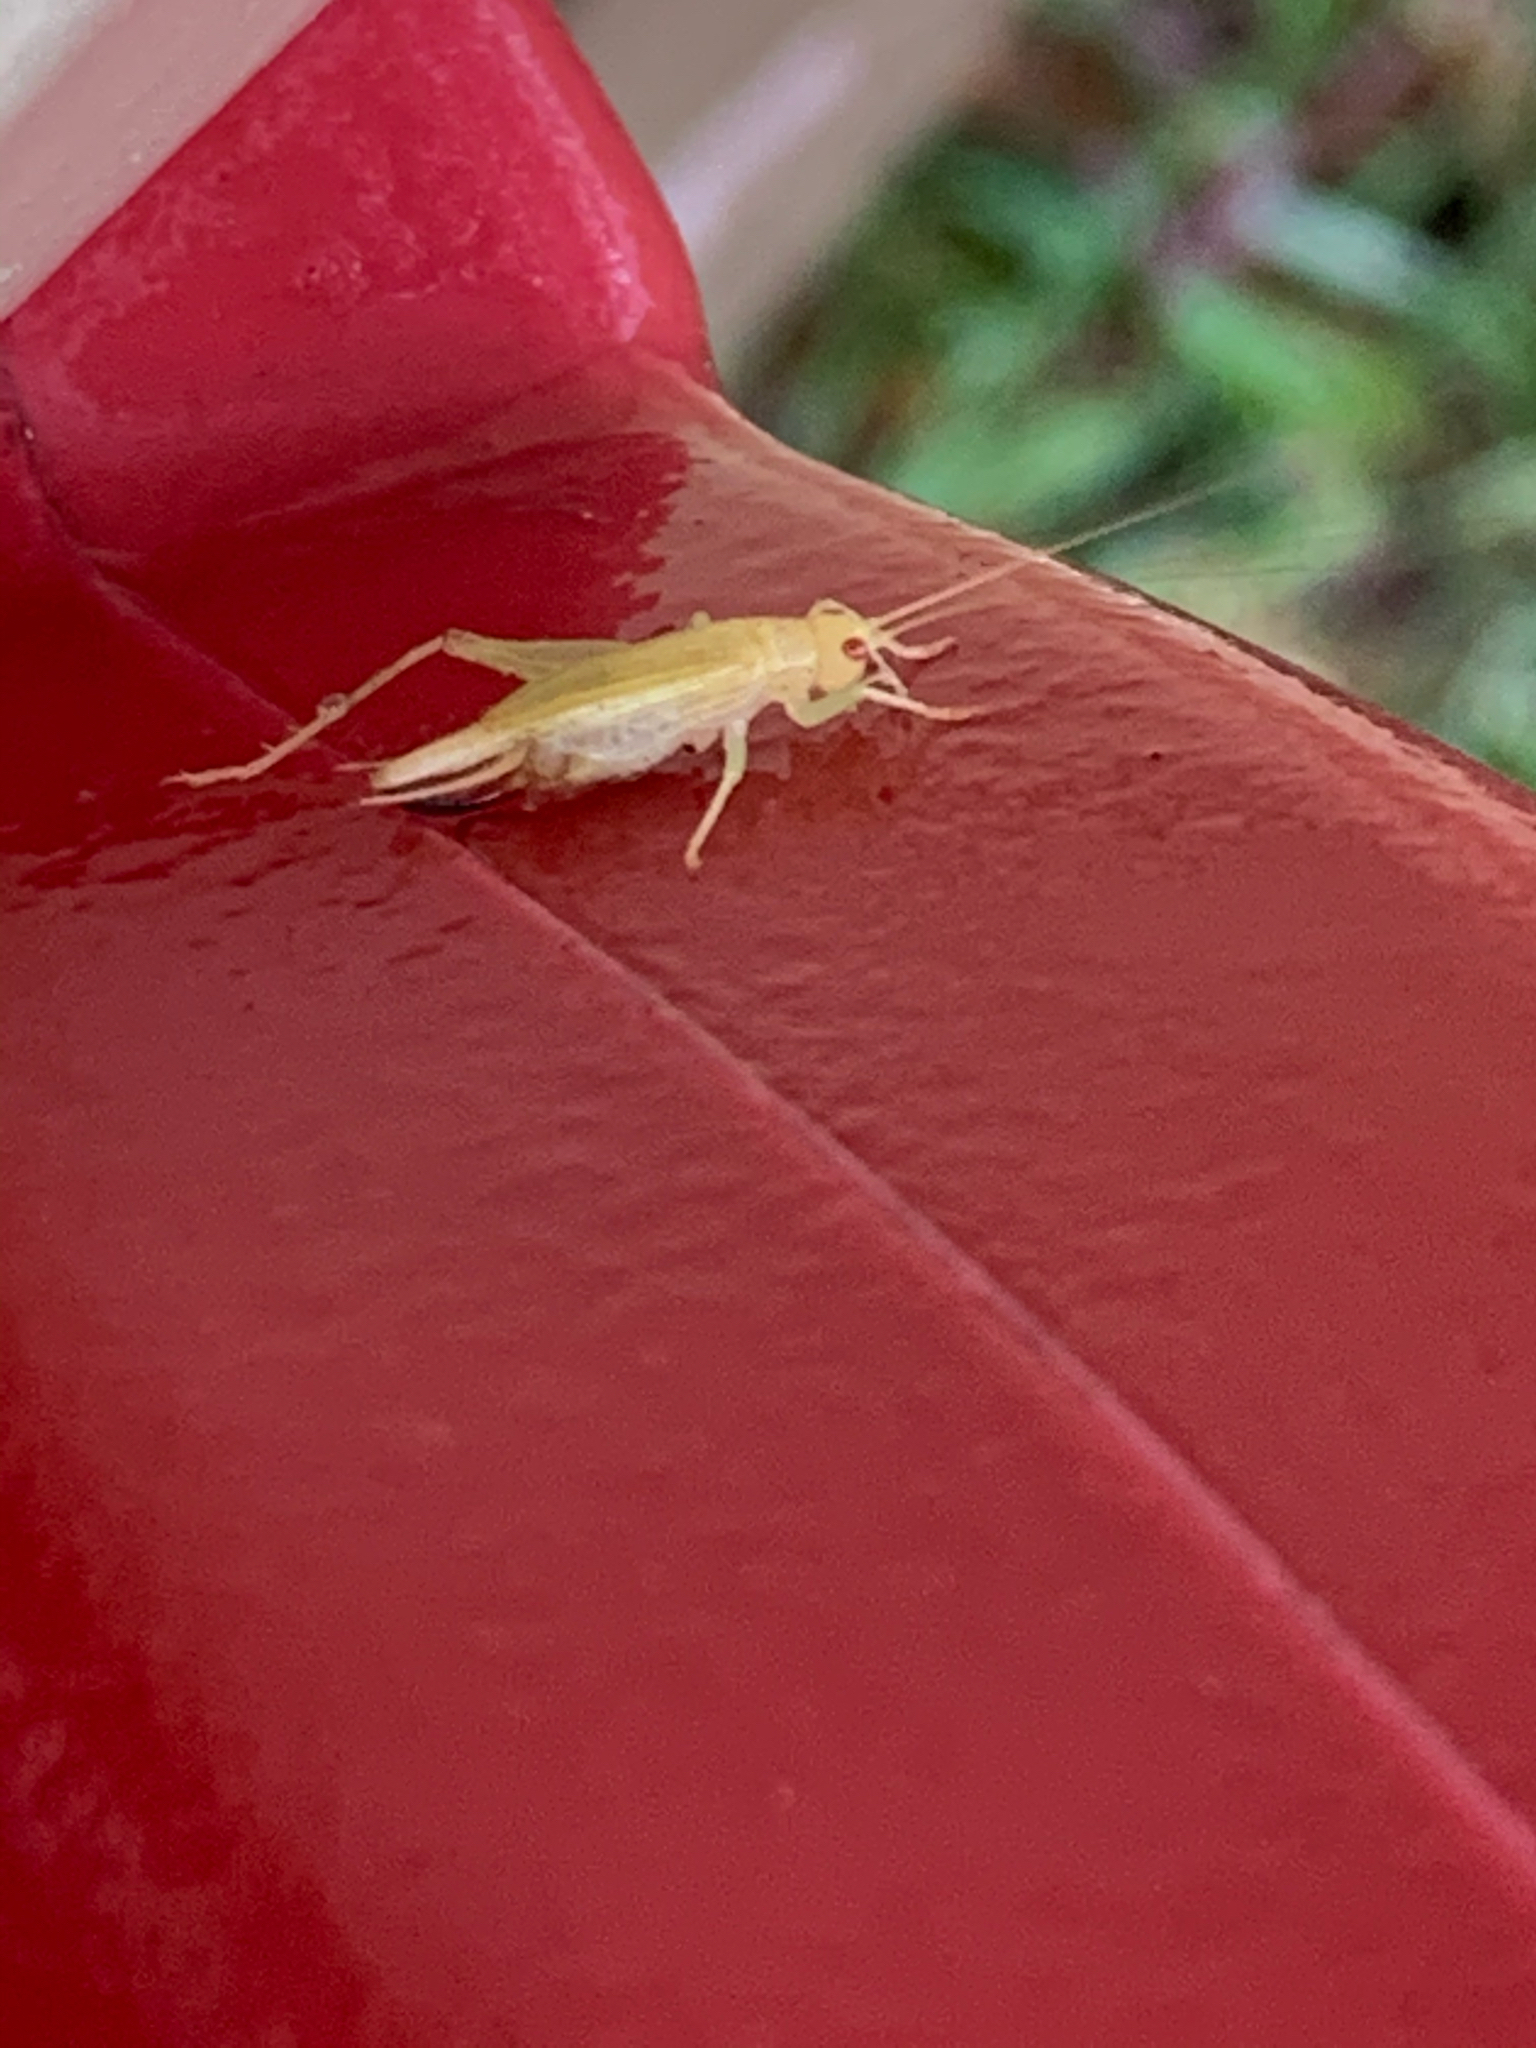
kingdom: Animalia
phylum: Arthropoda
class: Insecta
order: Orthoptera
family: Trigonidiidae
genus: Cyrtoxipha
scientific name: Cyrtoxipha columbiana
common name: Columbian trig
